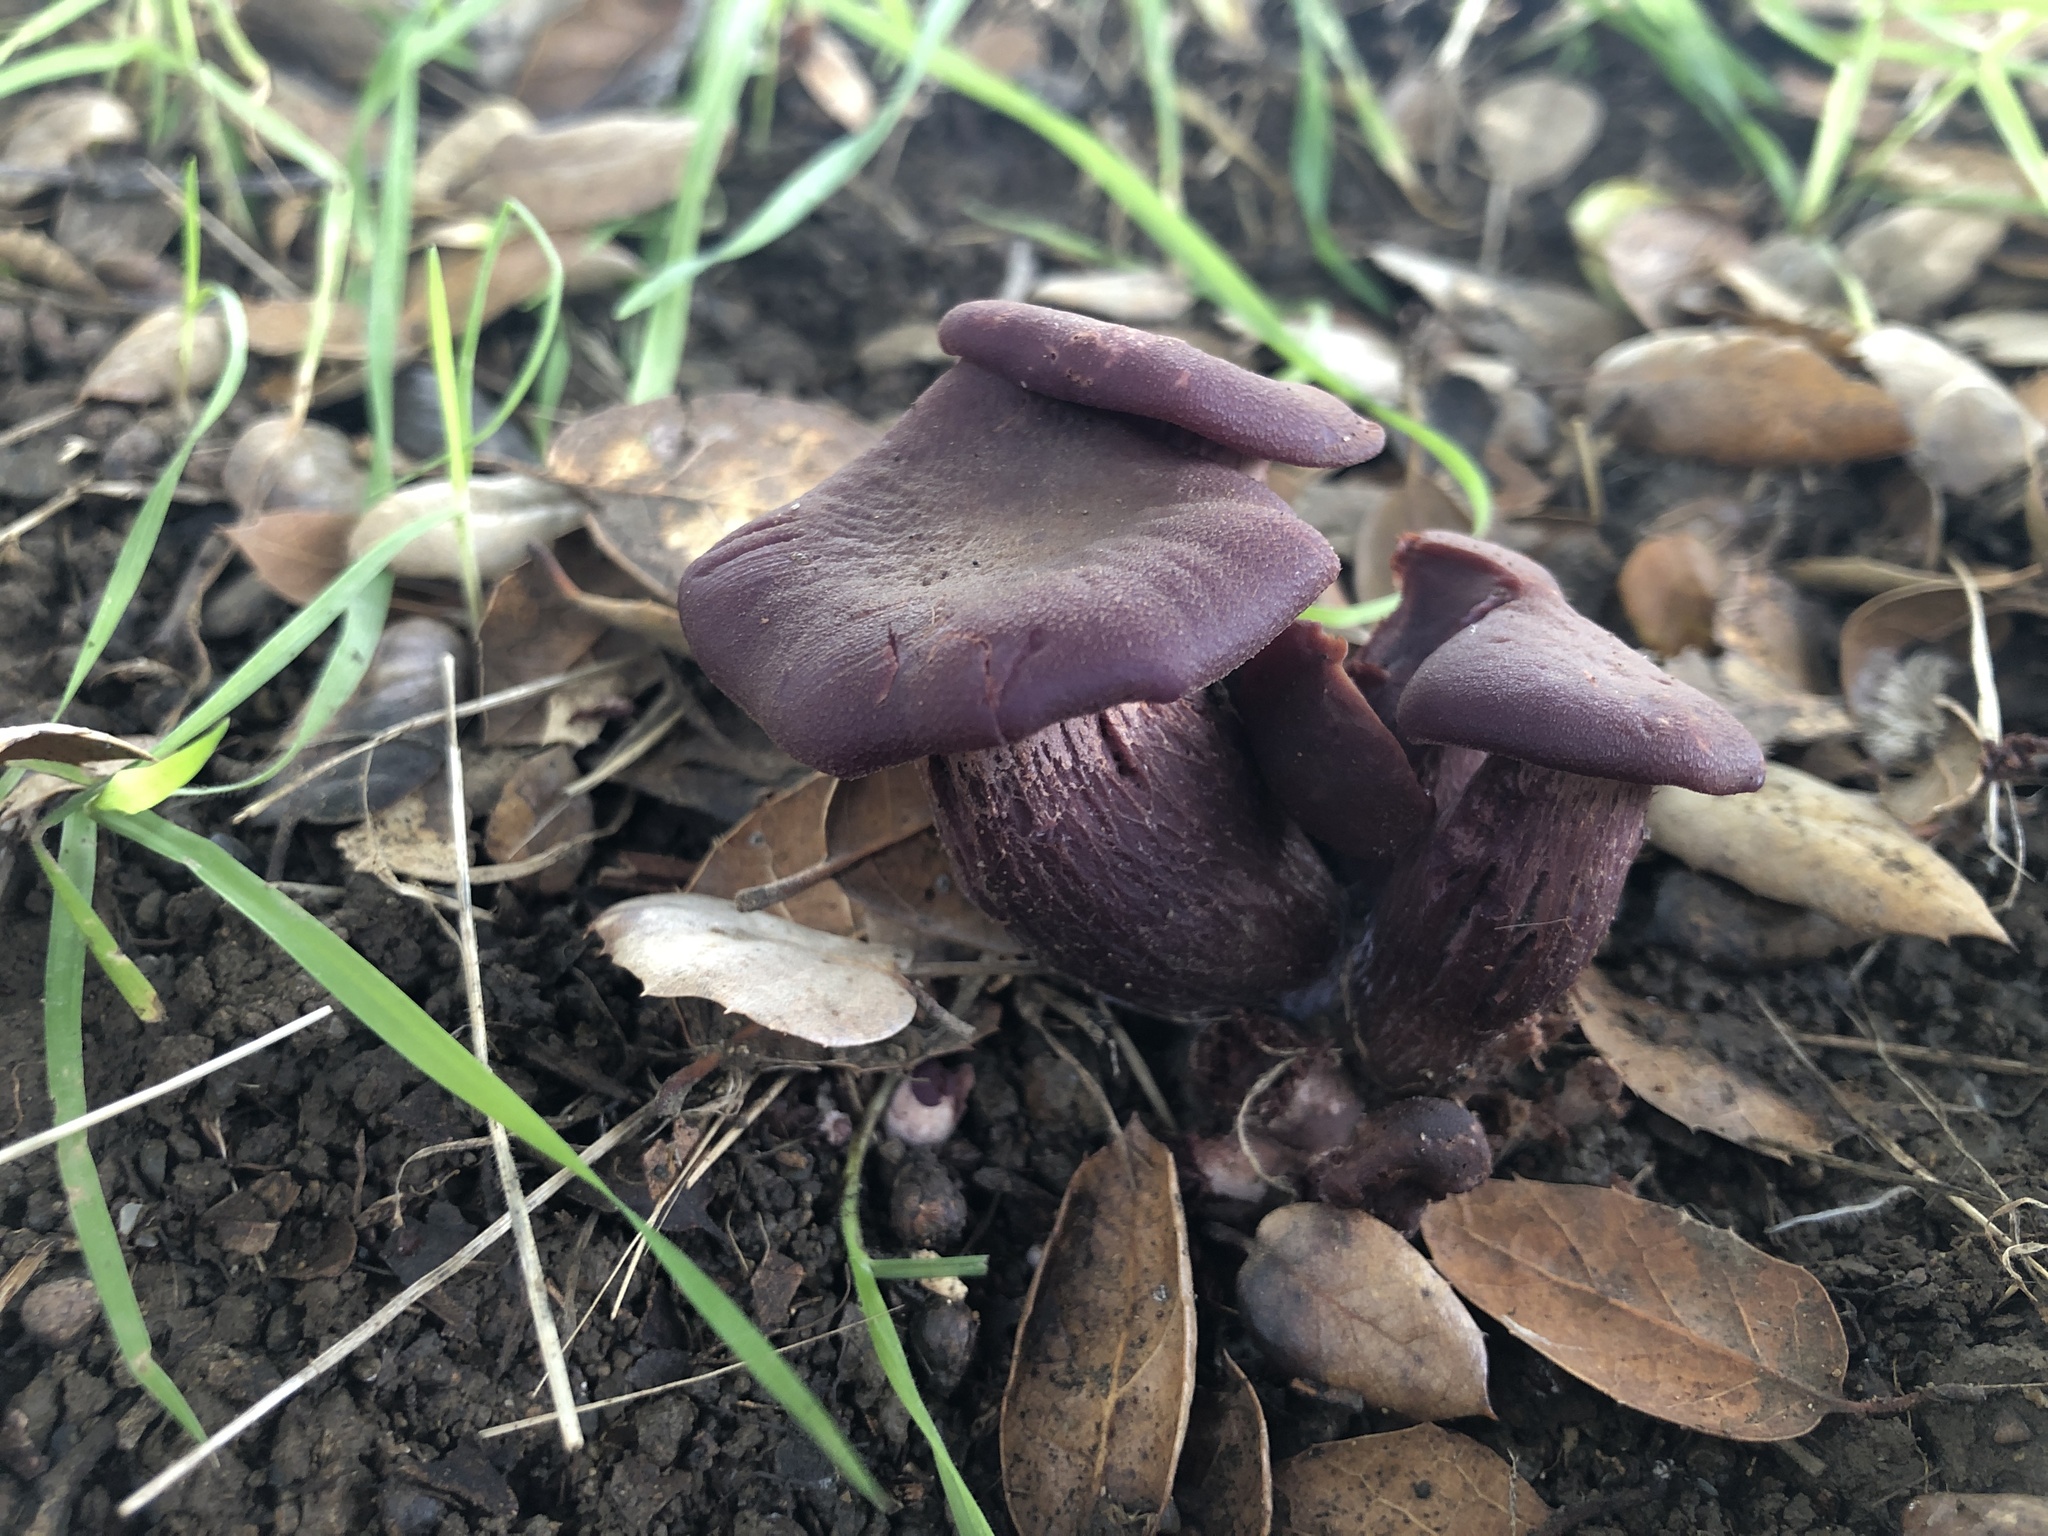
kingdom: Fungi
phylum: Basidiomycota
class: Agaricomycetes
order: Agaricales
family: Hydnangiaceae
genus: Laccaria
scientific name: Laccaria amethysteo-occidentalis
